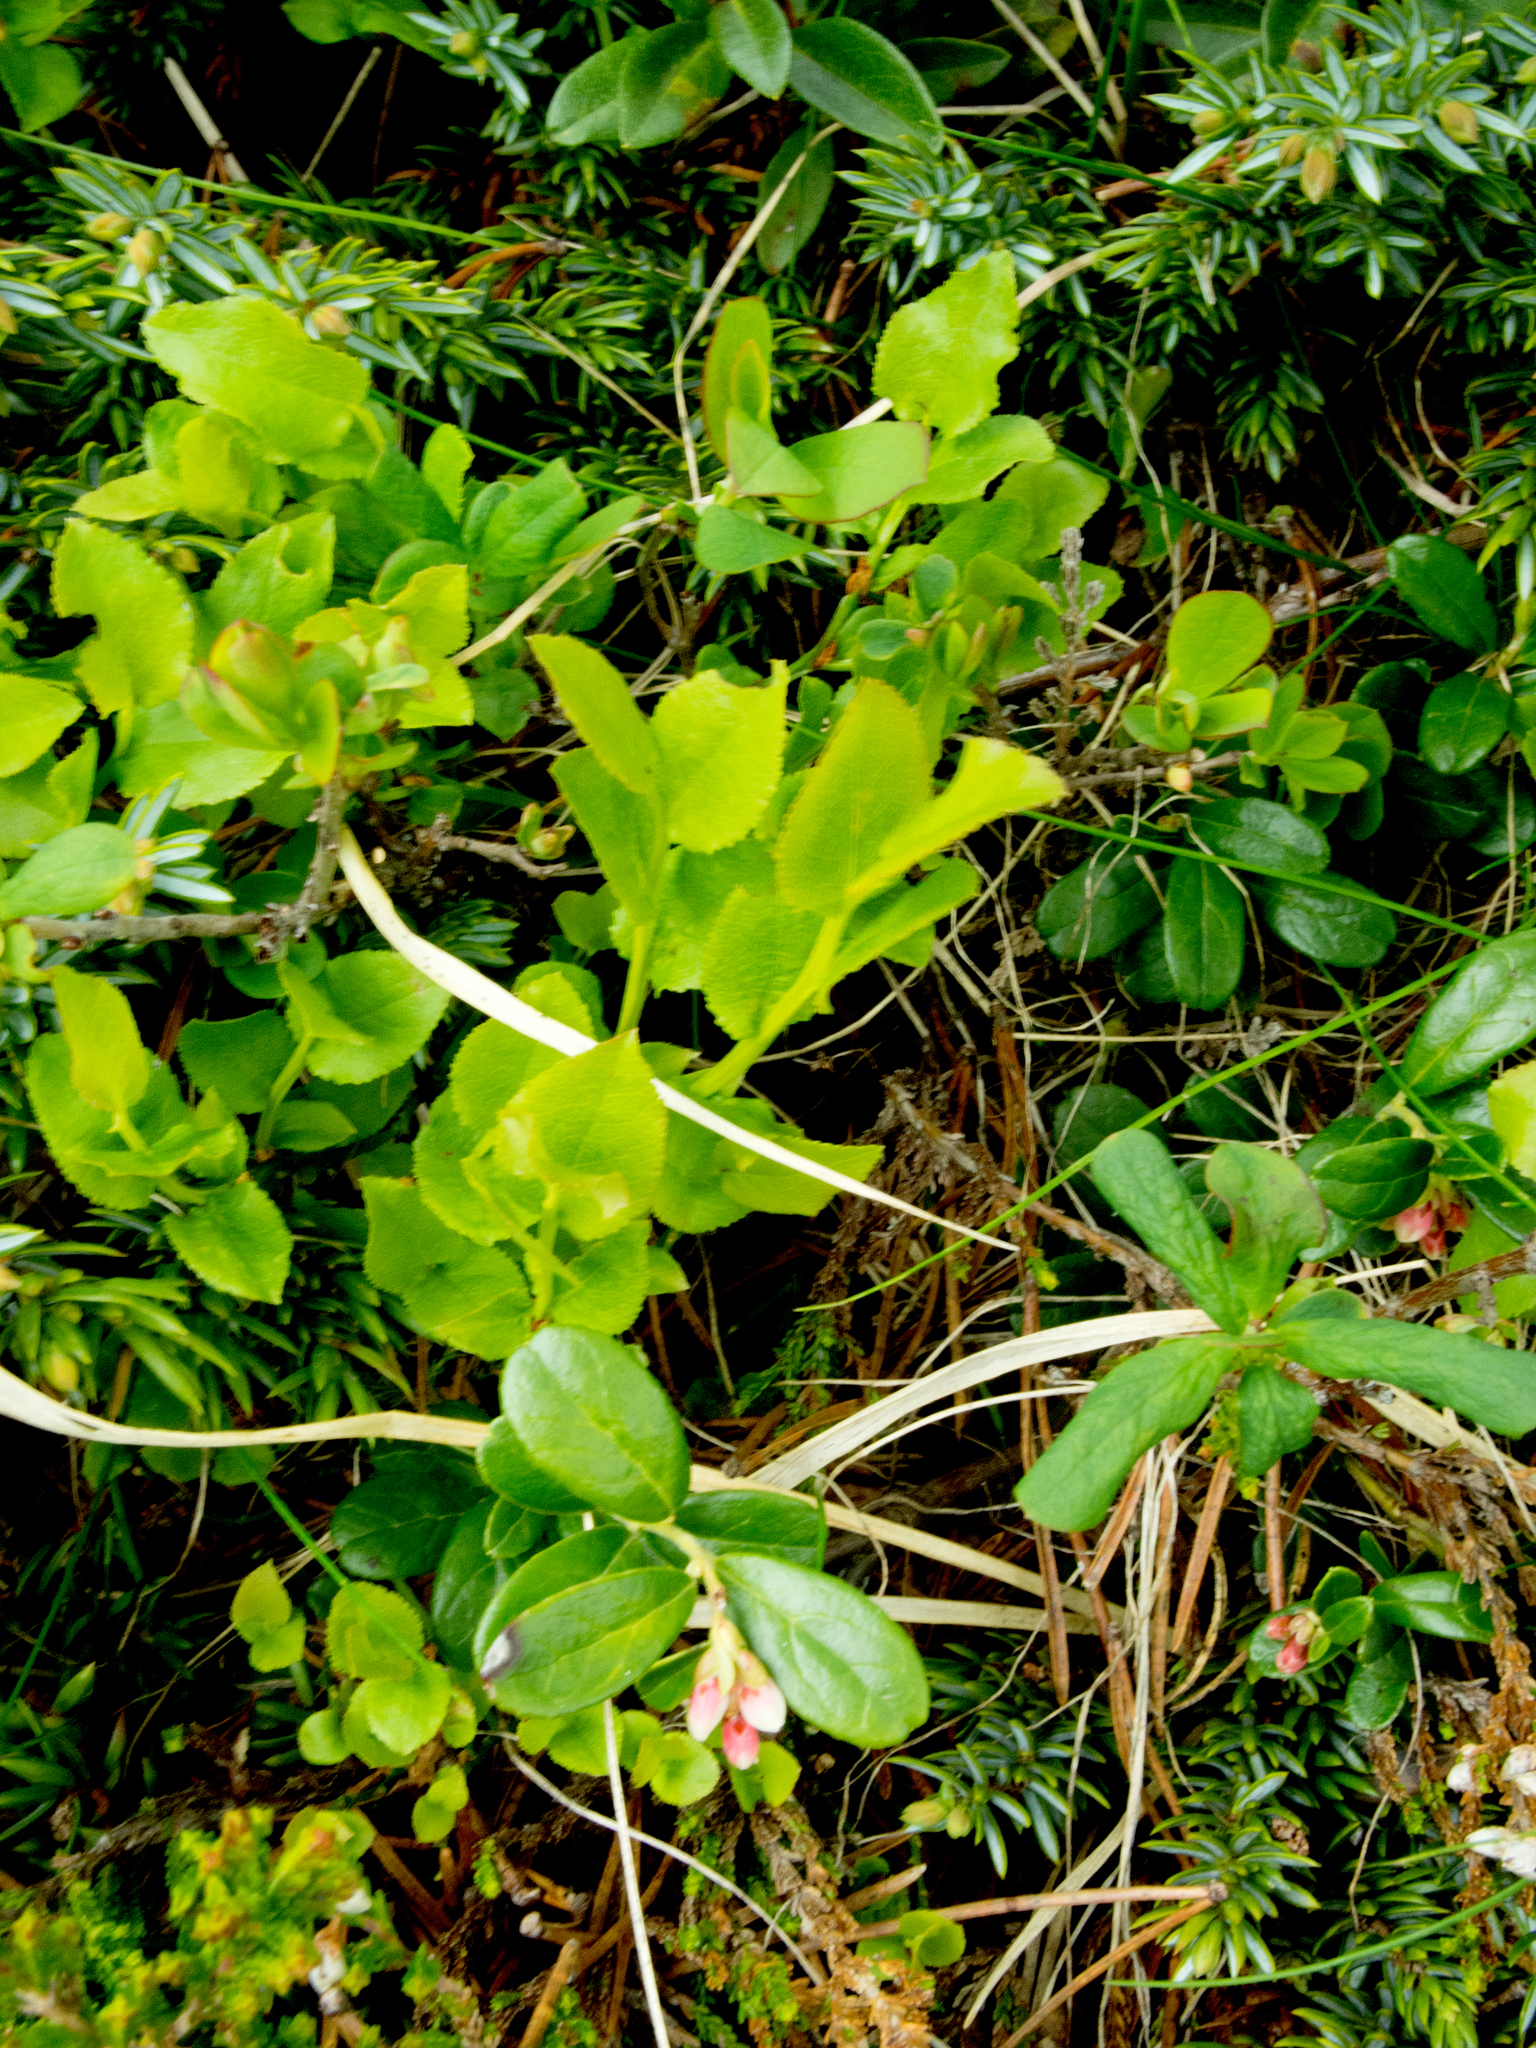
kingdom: Plantae
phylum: Tracheophyta
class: Magnoliopsida
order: Ericales
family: Ericaceae
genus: Vaccinium
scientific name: Vaccinium uliginosum
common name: Bog bilberry
